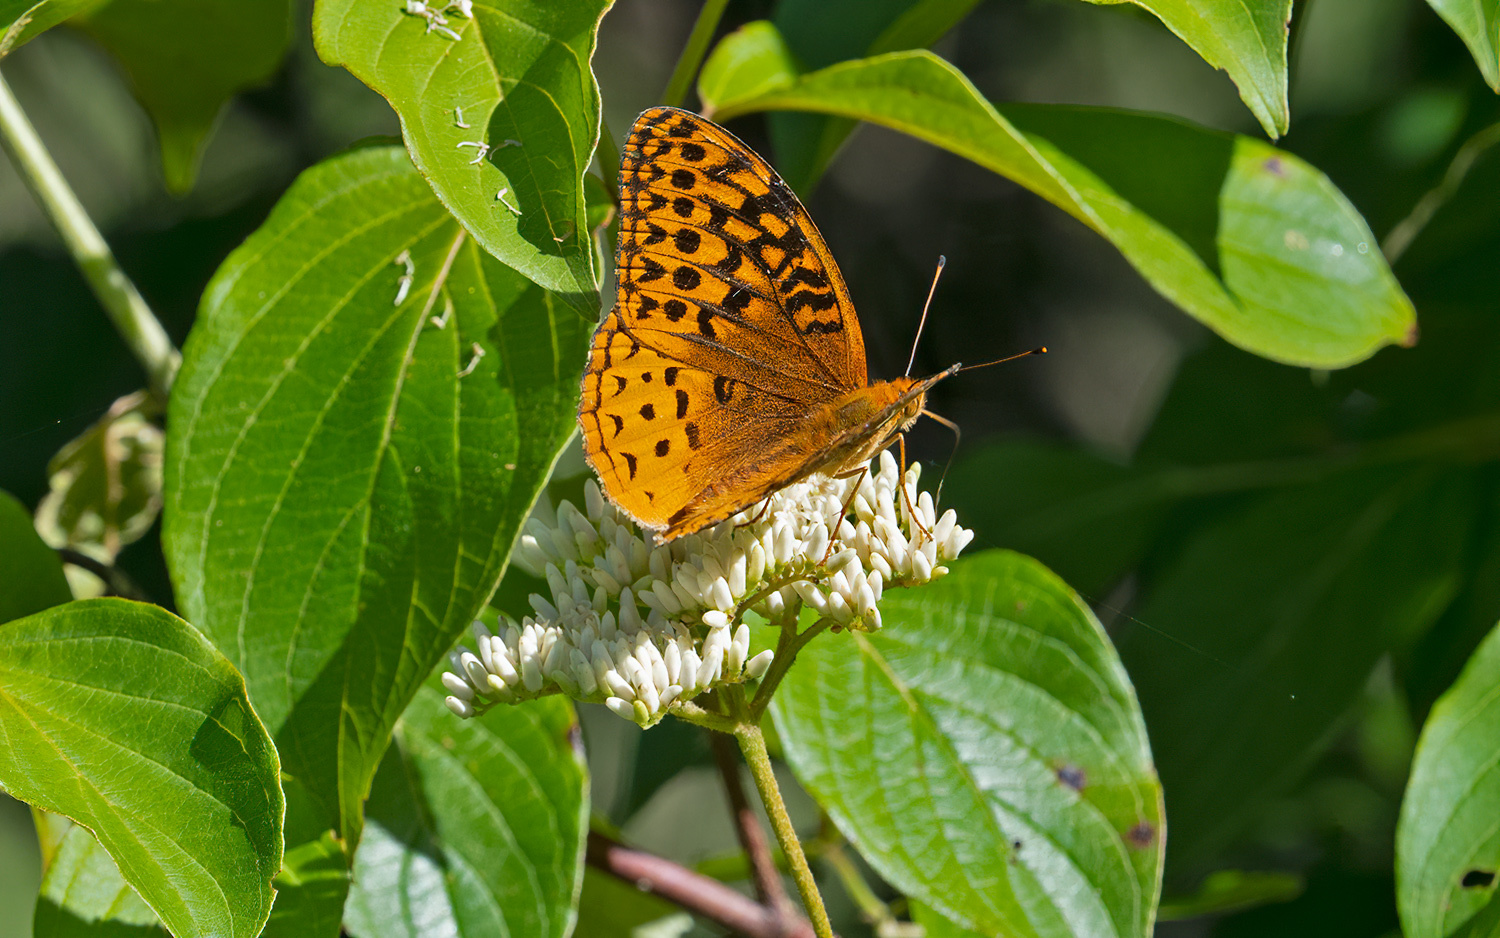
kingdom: Animalia
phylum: Arthropoda
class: Insecta
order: Lepidoptera
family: Nymphalidae
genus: Speyeria
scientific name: Speyeria cybele
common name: Great spangled fritillary
